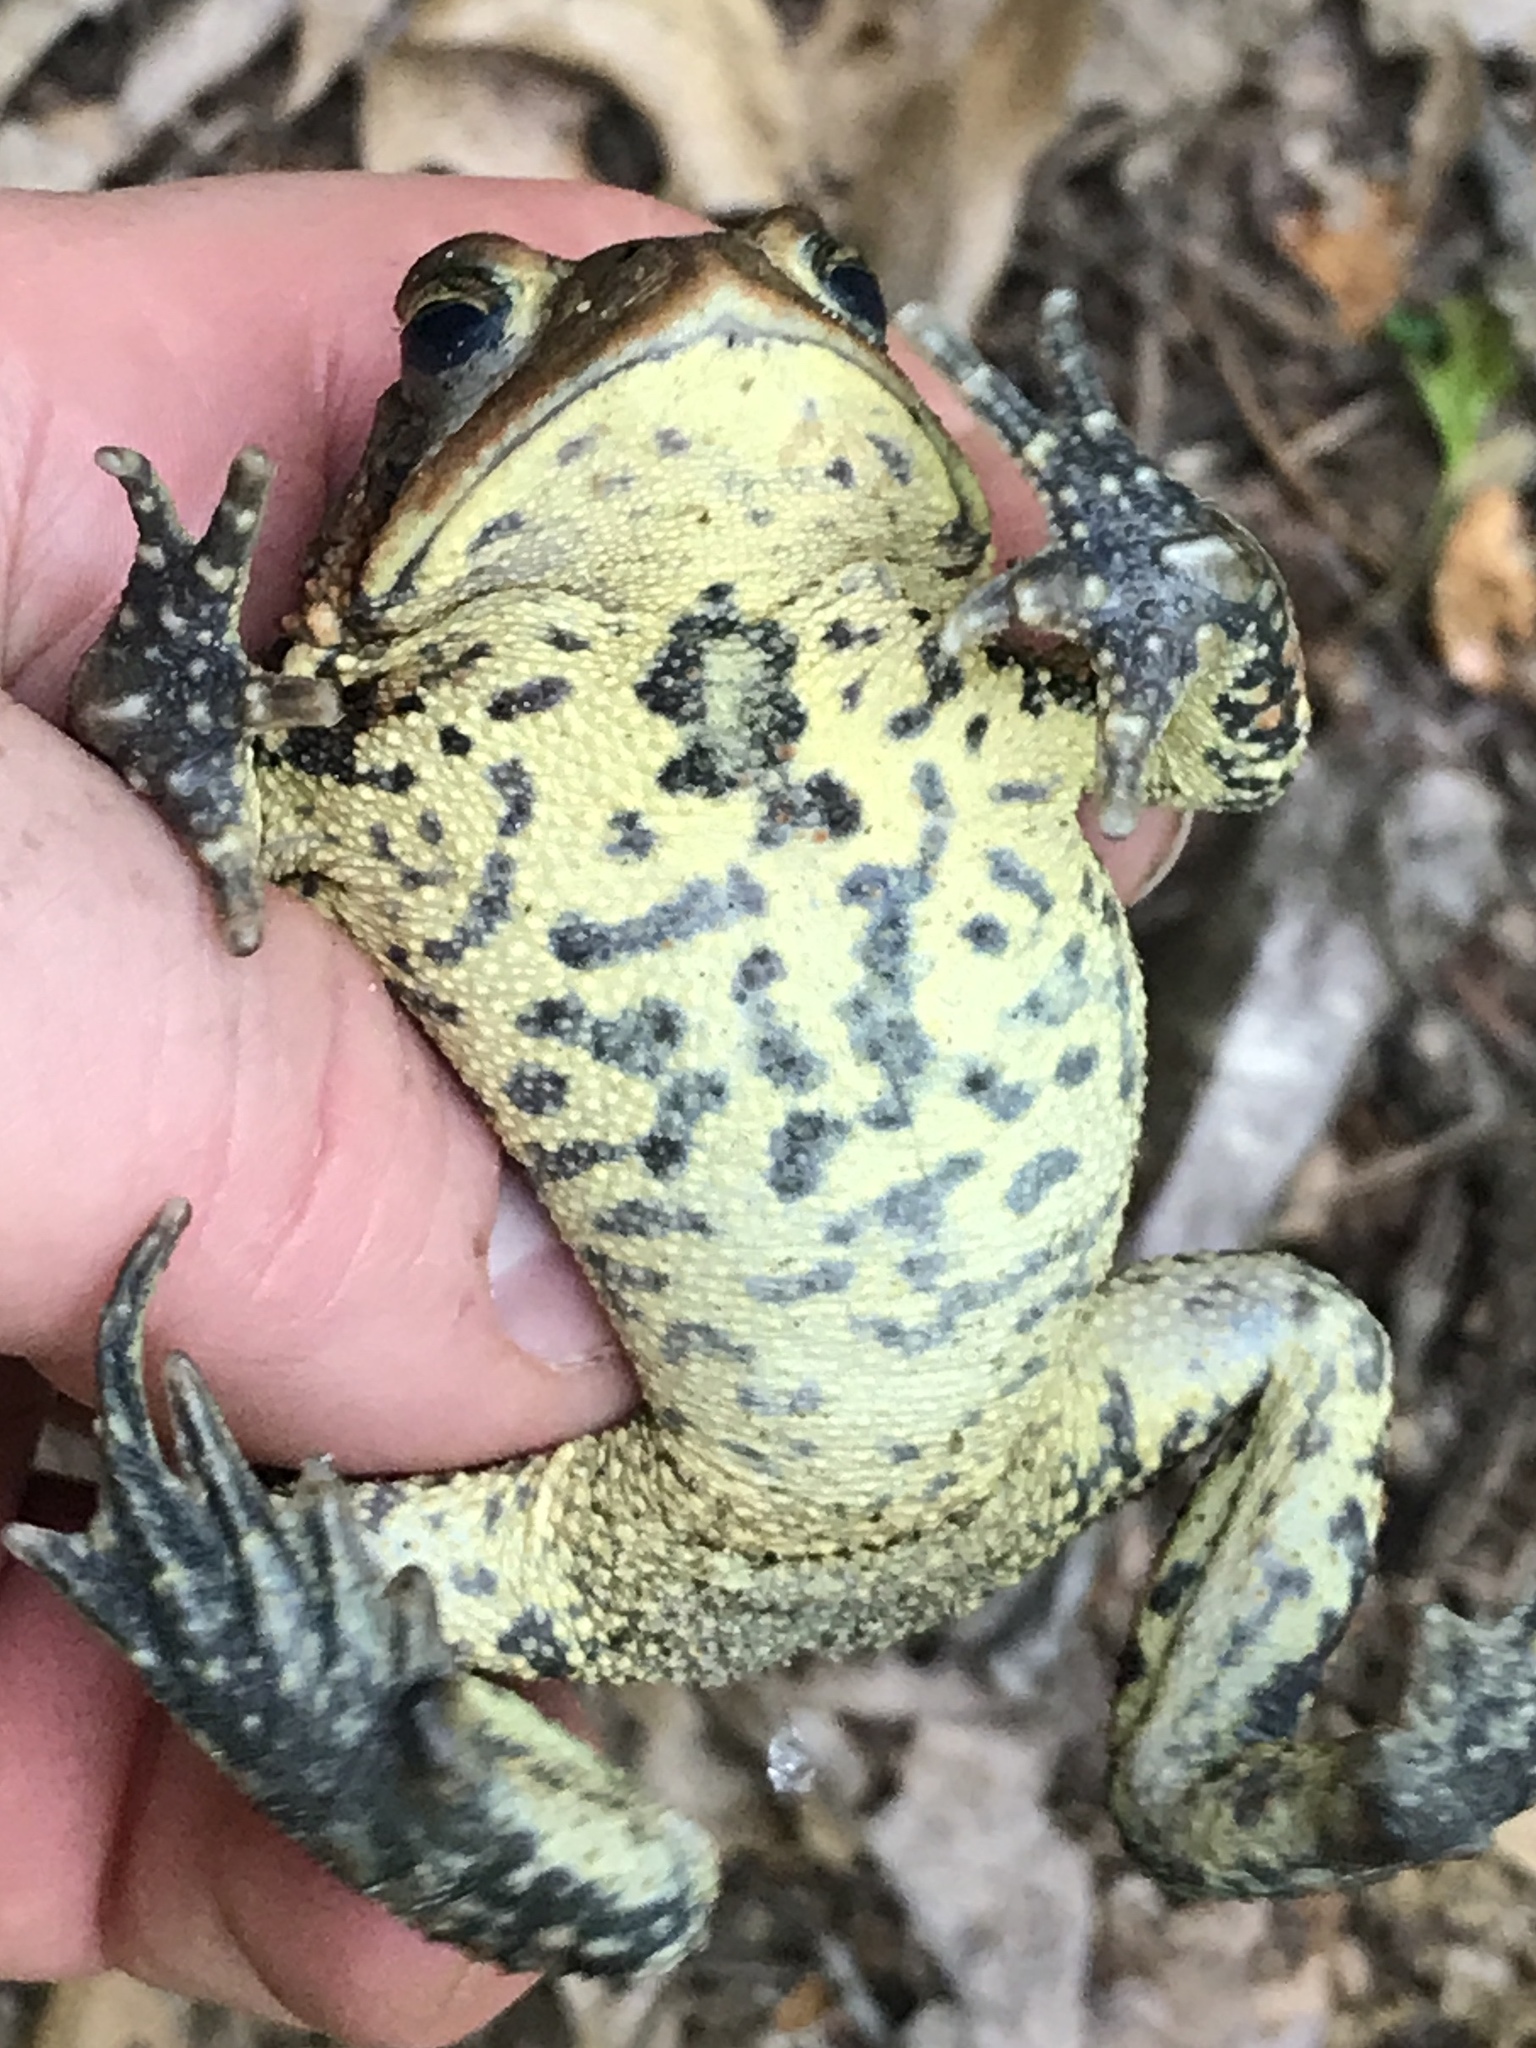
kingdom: Animalia
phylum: Chordata
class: Amphibia
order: Anura
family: Bufonidae
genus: Anaxyrus
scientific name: Anaxyrus americanus
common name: American toad
